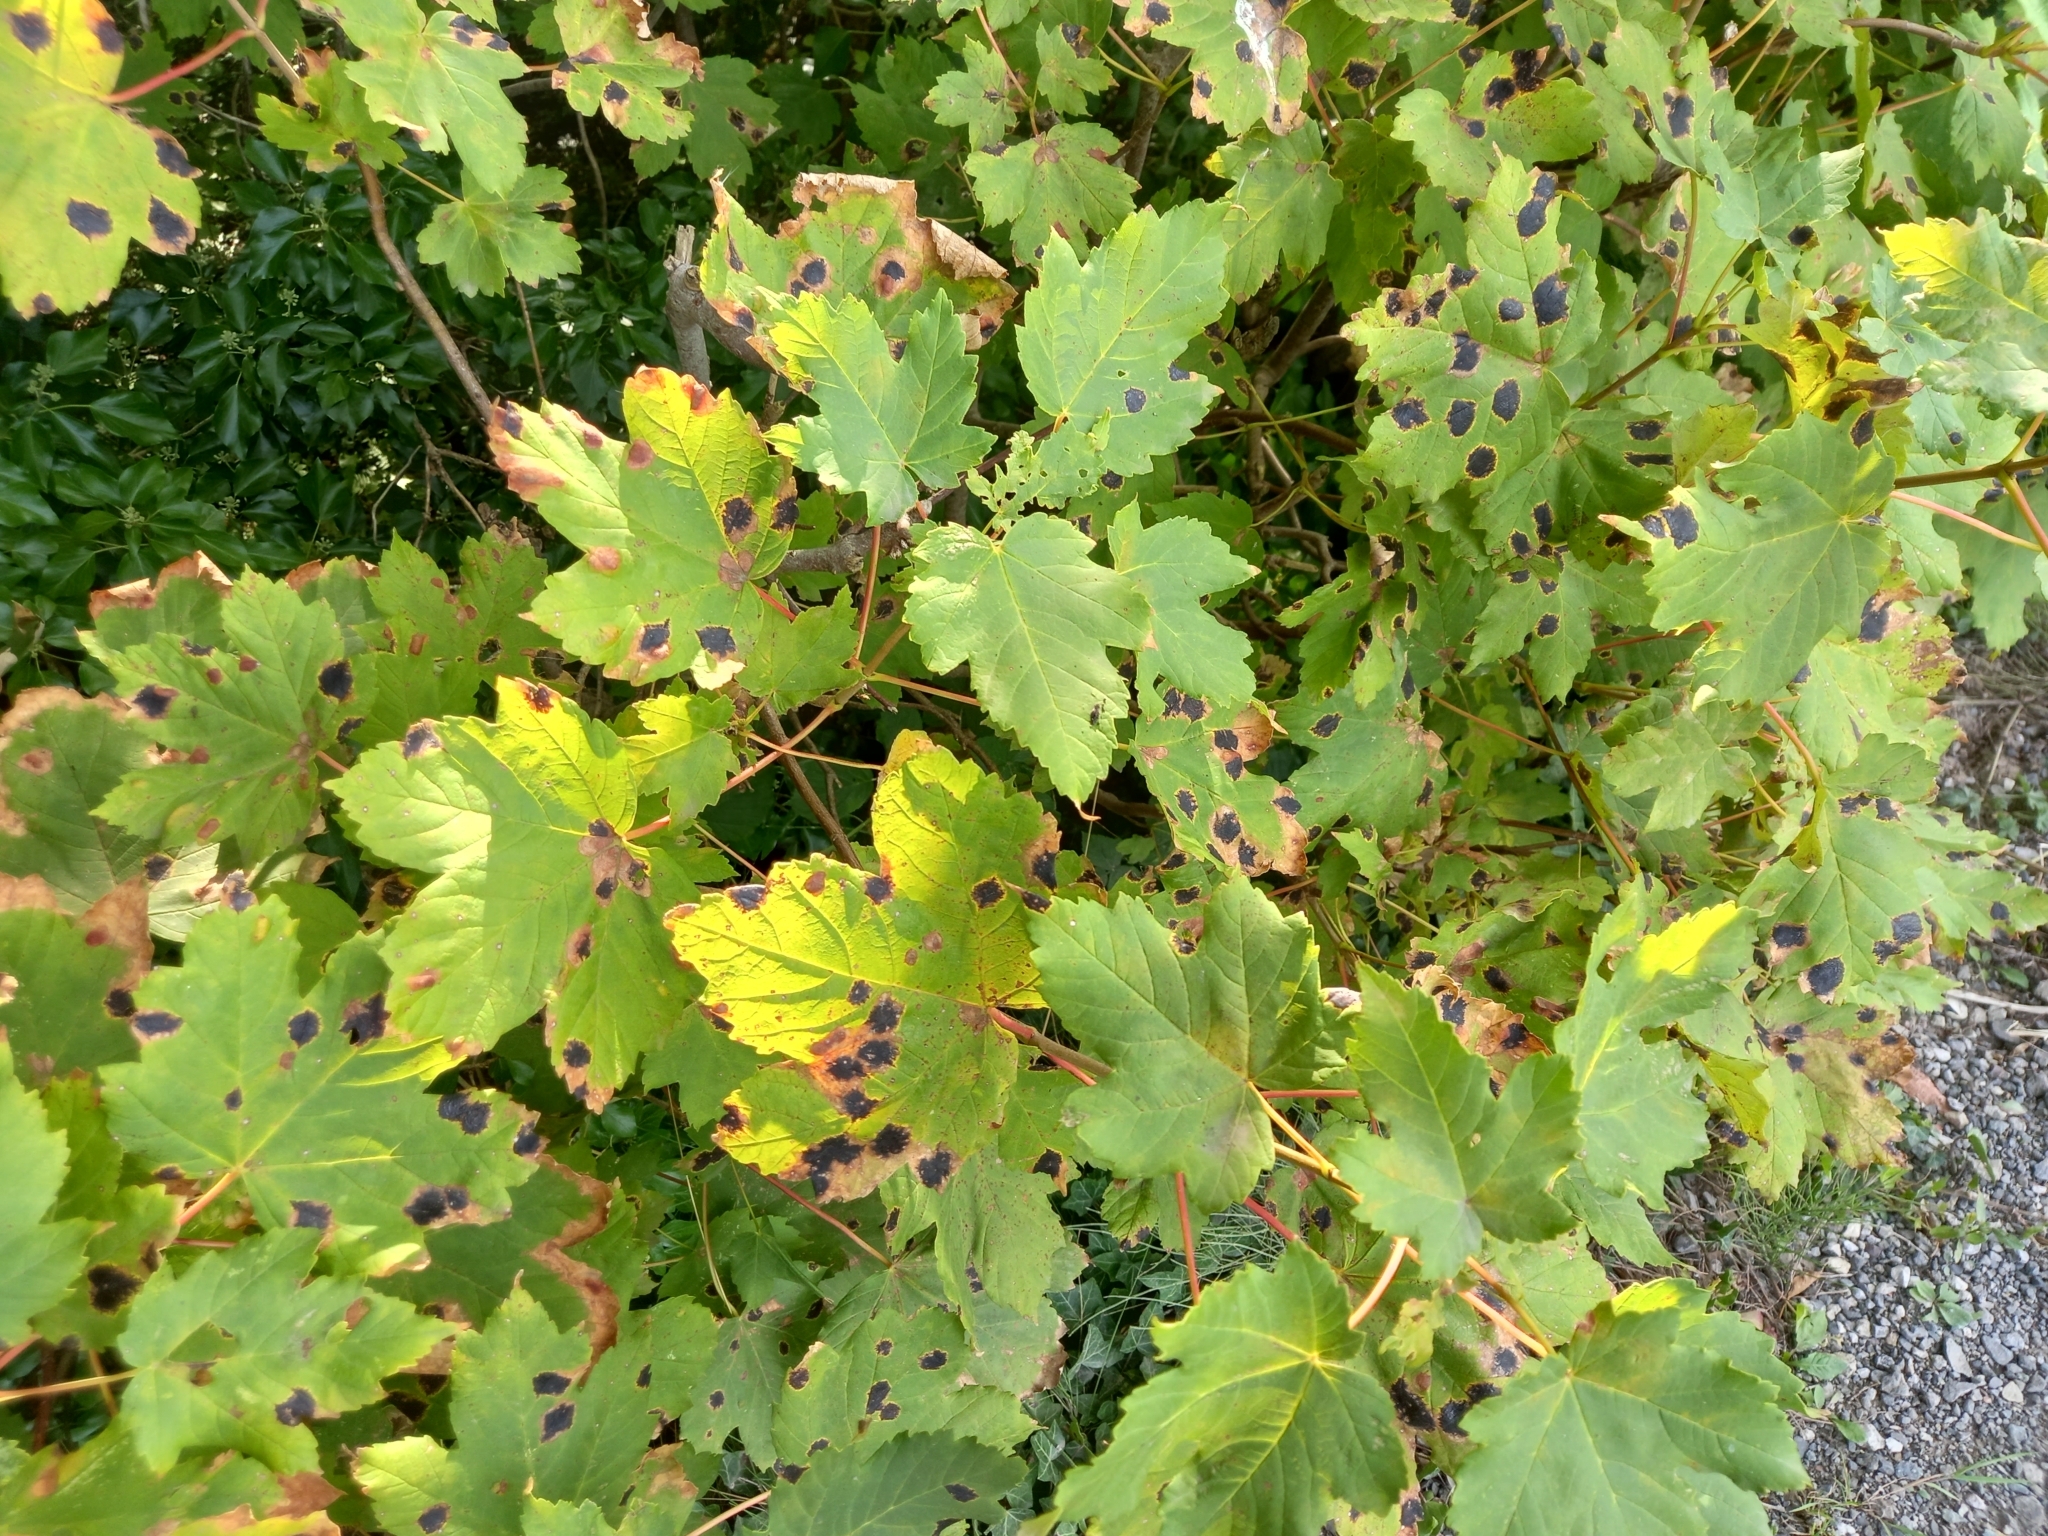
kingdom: Fungi
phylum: Ascomycota
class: Leotiomycetes
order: Rhytismatales
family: Rhytismataceae
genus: Rhytisma
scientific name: Rhytisma acerinum
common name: European tar spot
